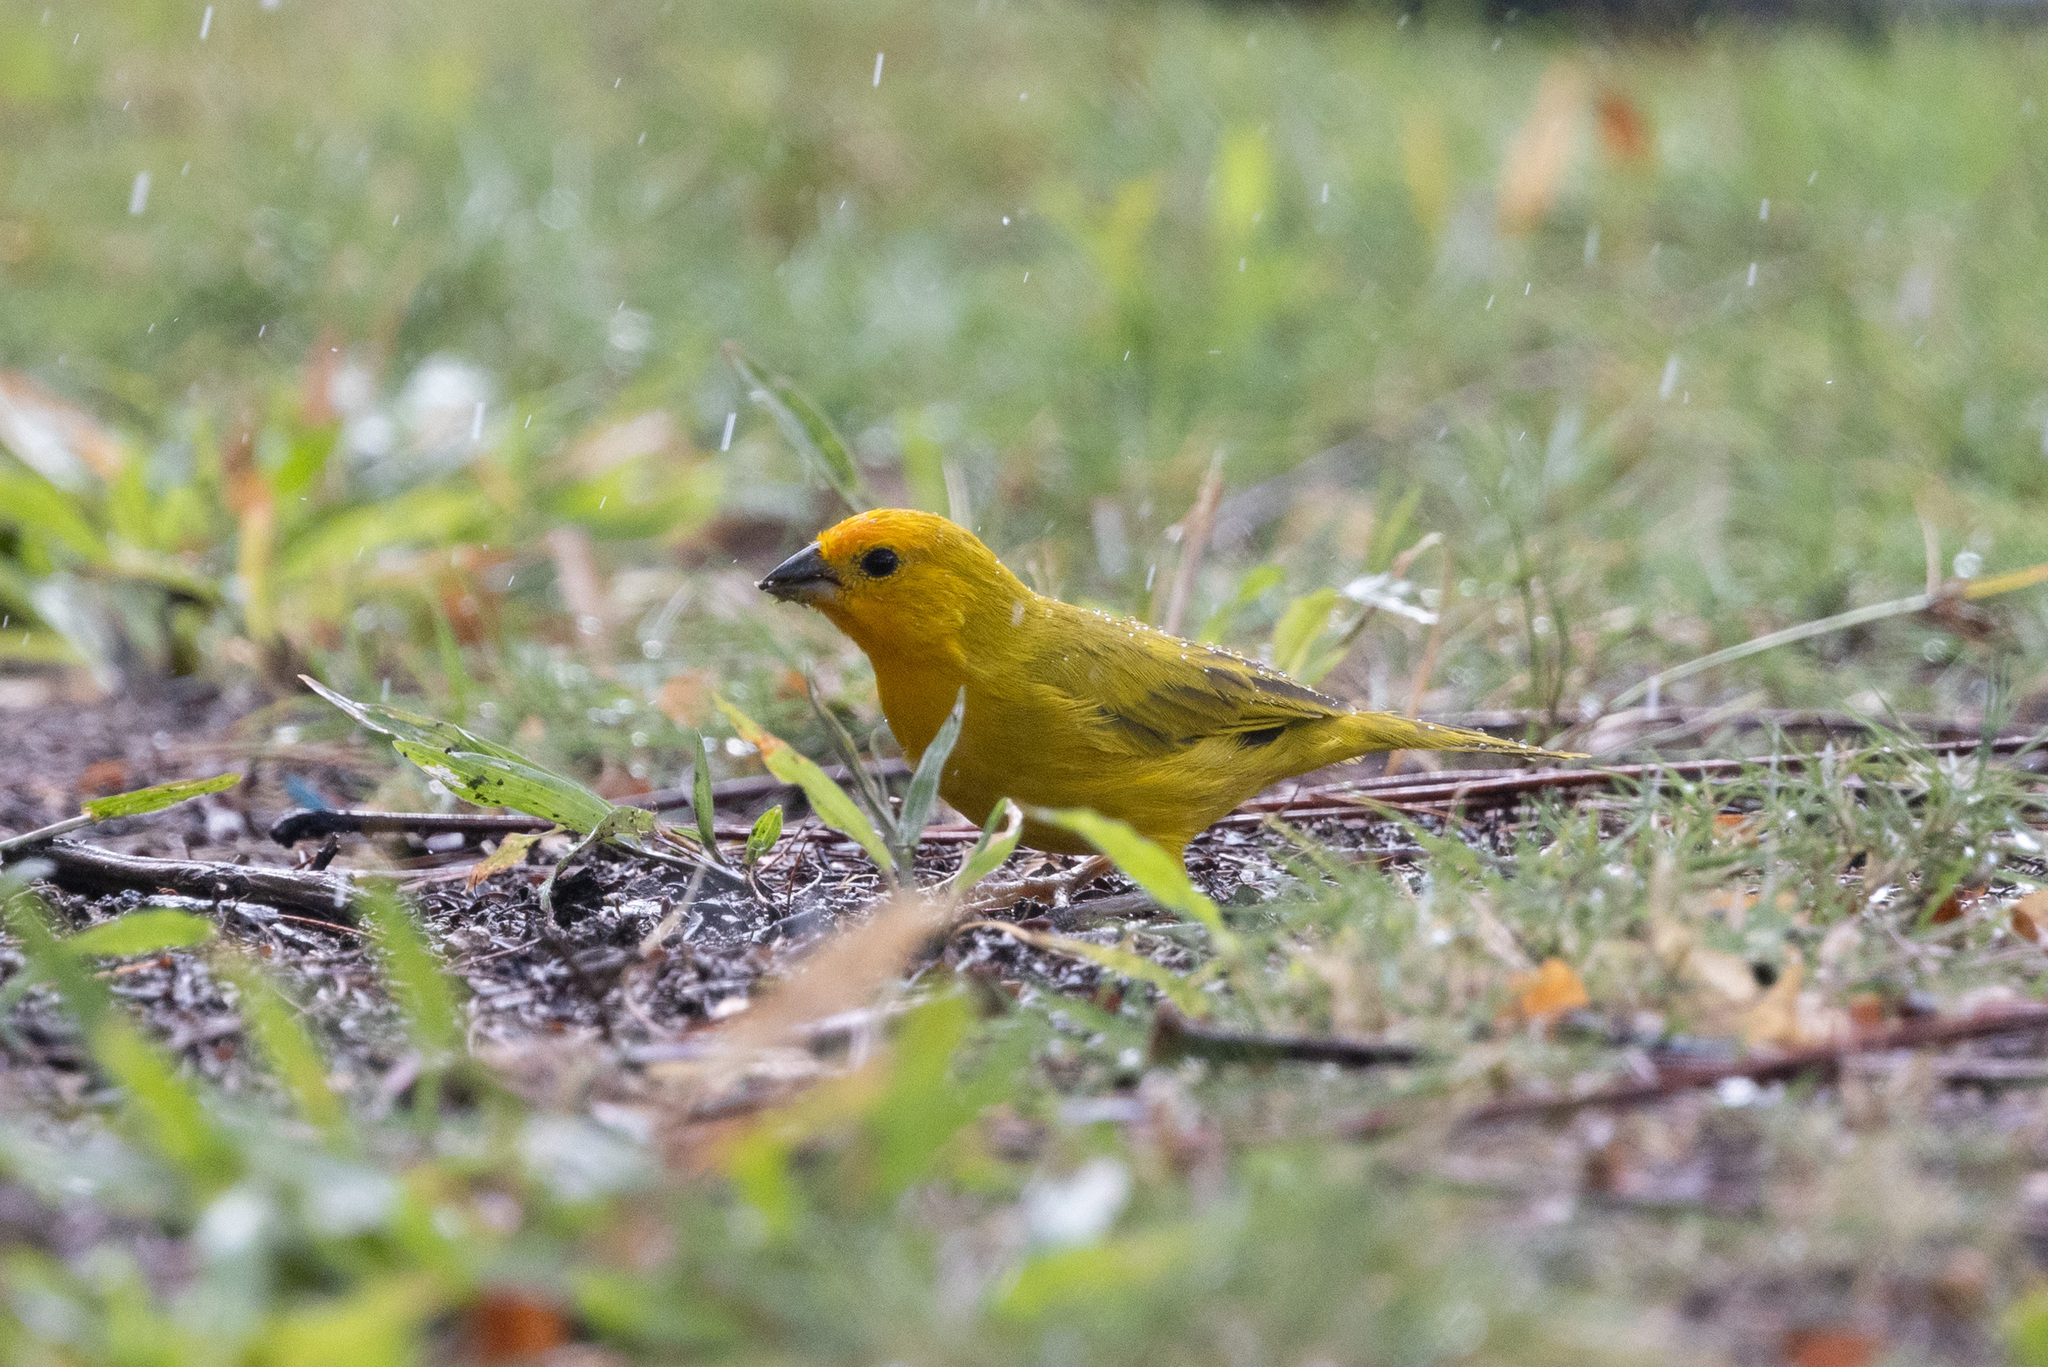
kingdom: Animalia
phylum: Chordata
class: Aves
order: Passeriformes
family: Thraupidae
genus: Sicalis
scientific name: Sicalis flaveola
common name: Saffron finch
